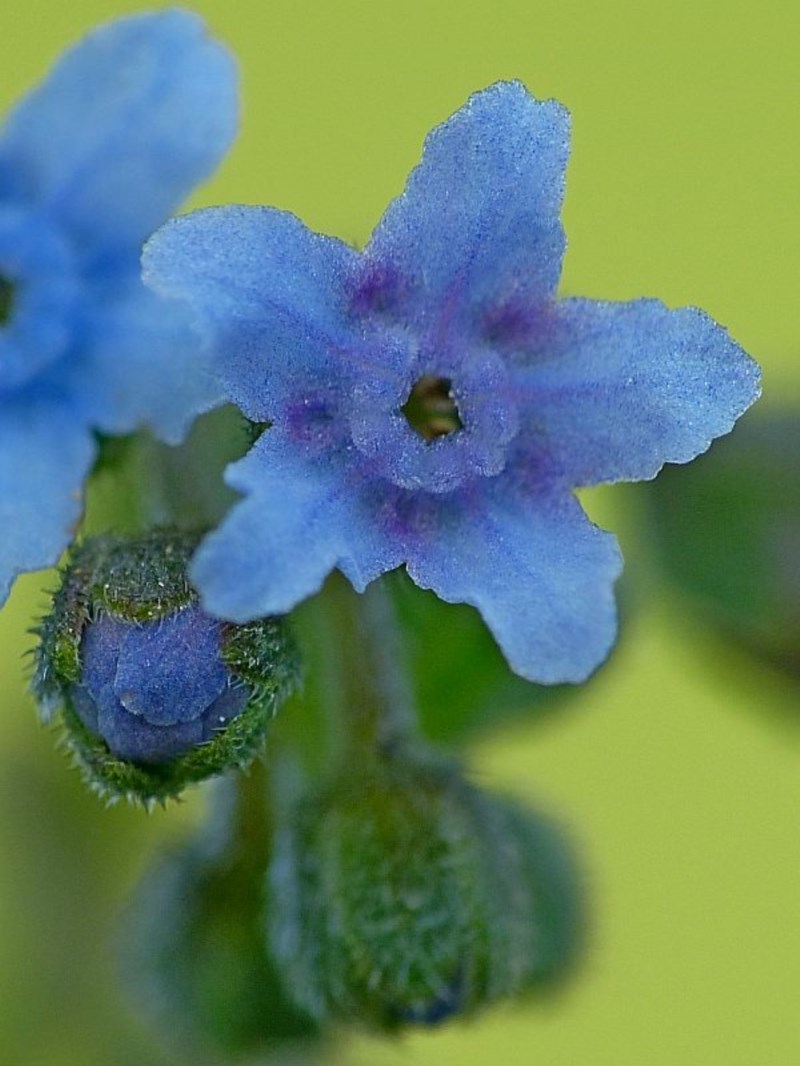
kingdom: Plantae
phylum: Tracheophyta
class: Magnoliopsida
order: Boraginales
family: Boraginaceae
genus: Cynoglossum
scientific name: Cynoglossum australe
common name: Australian hound's-tongue
